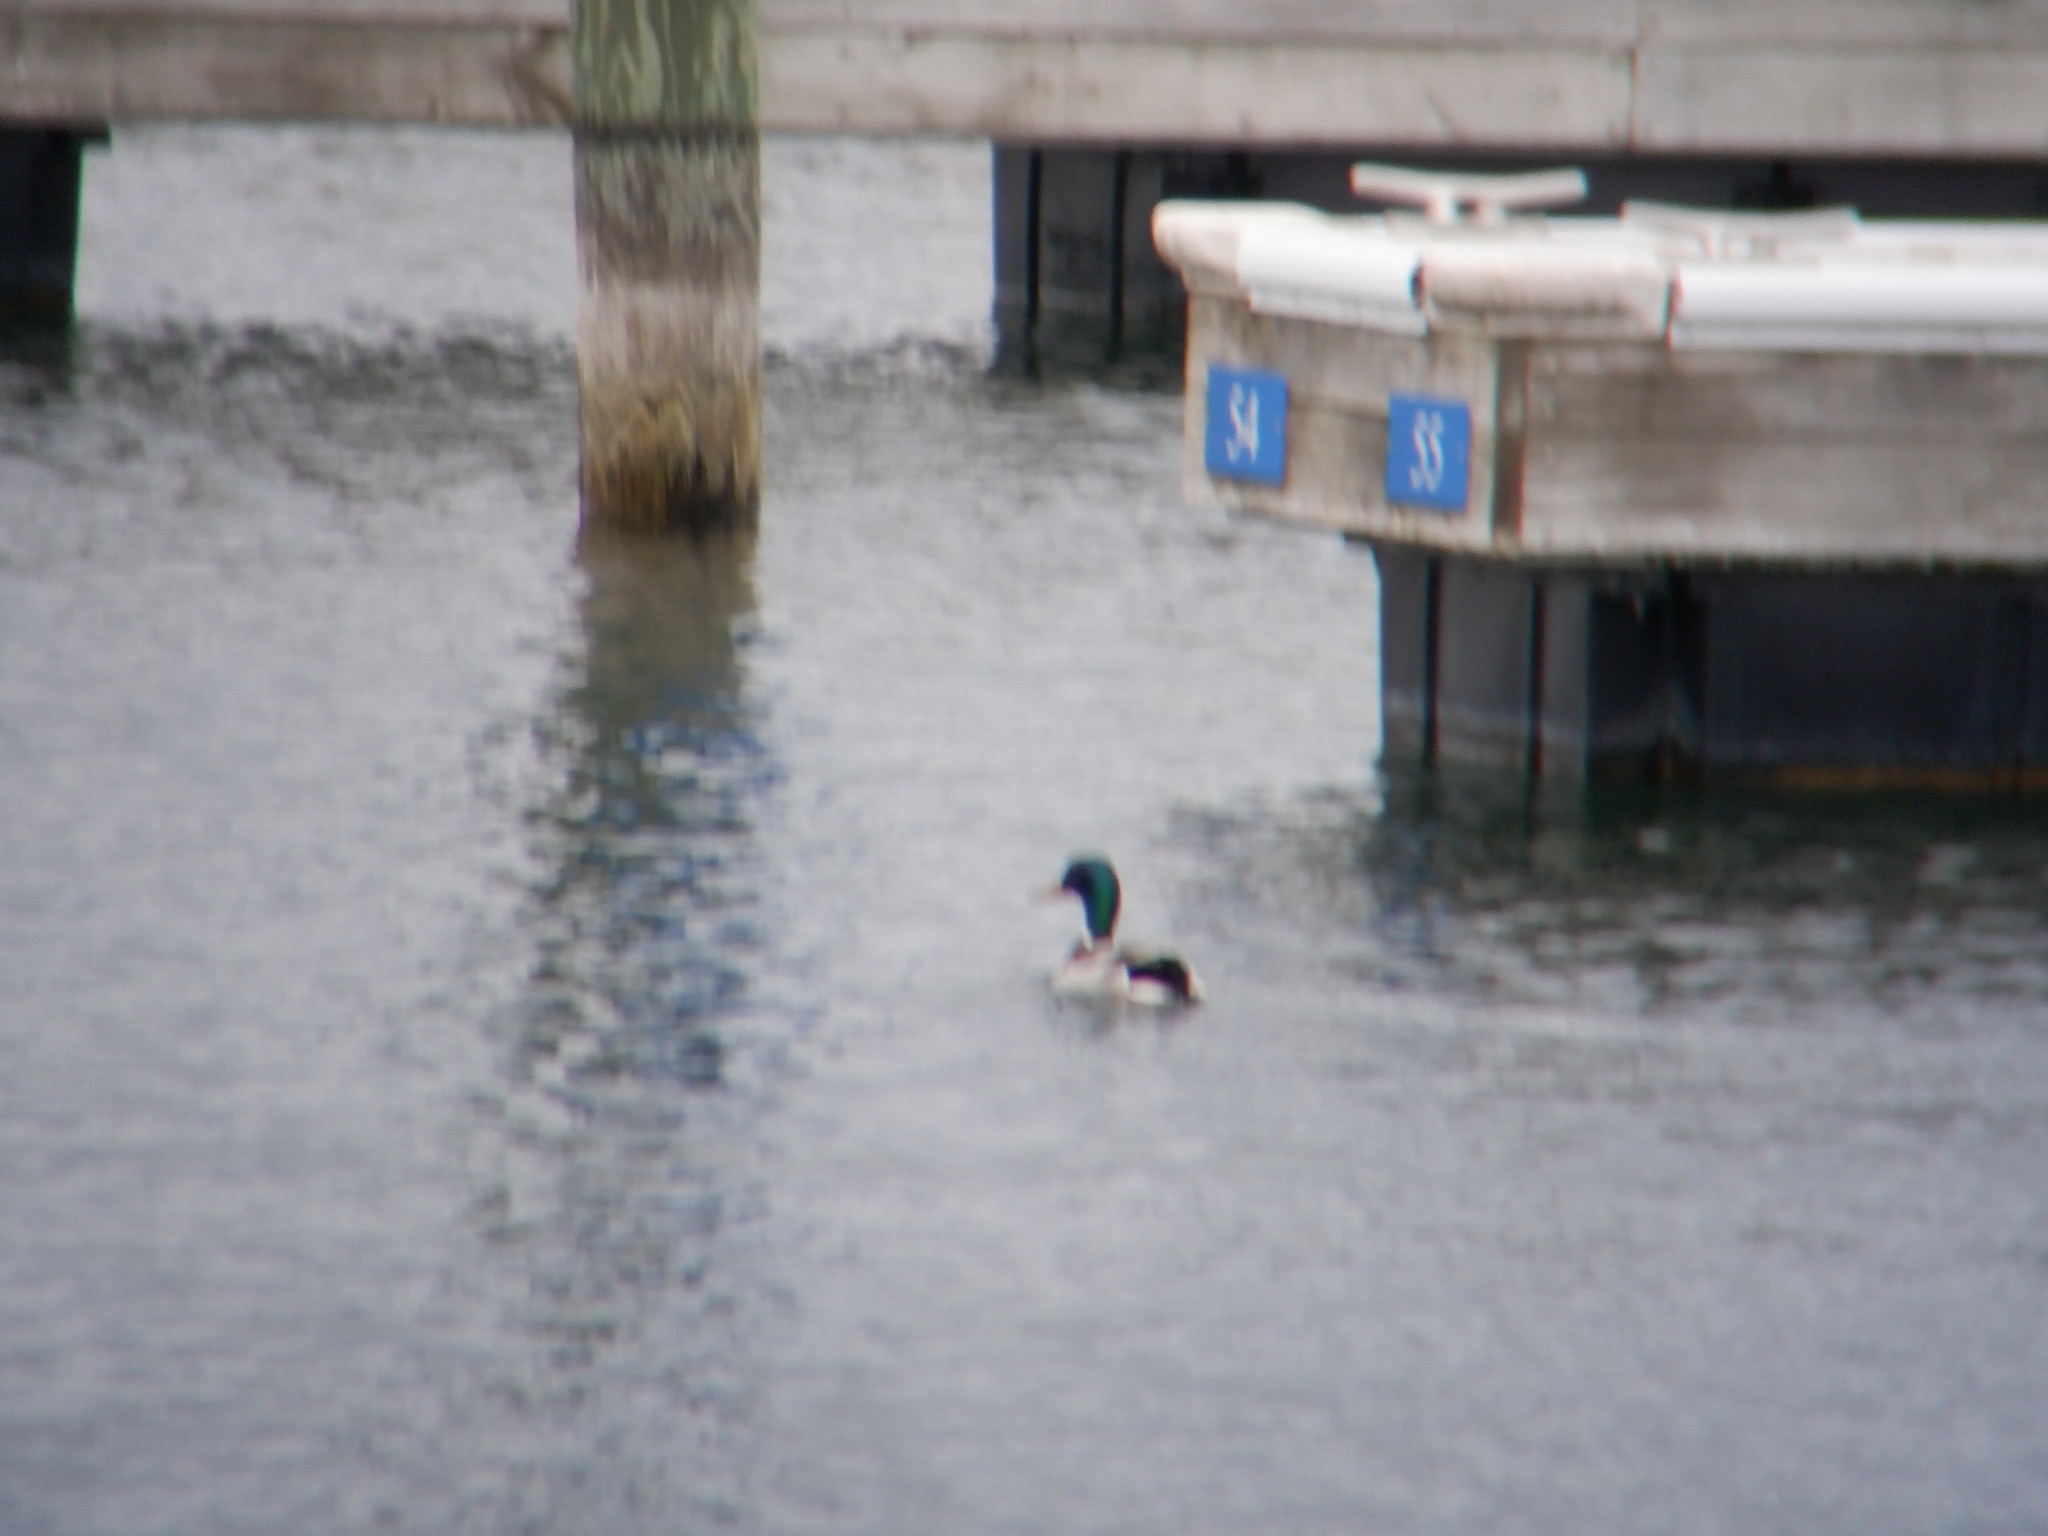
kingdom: Animalia
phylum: Chordata
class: Aves
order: Anseriformes
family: Anatidae
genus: Anas
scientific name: Anas platyrhynchos
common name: Mallard
